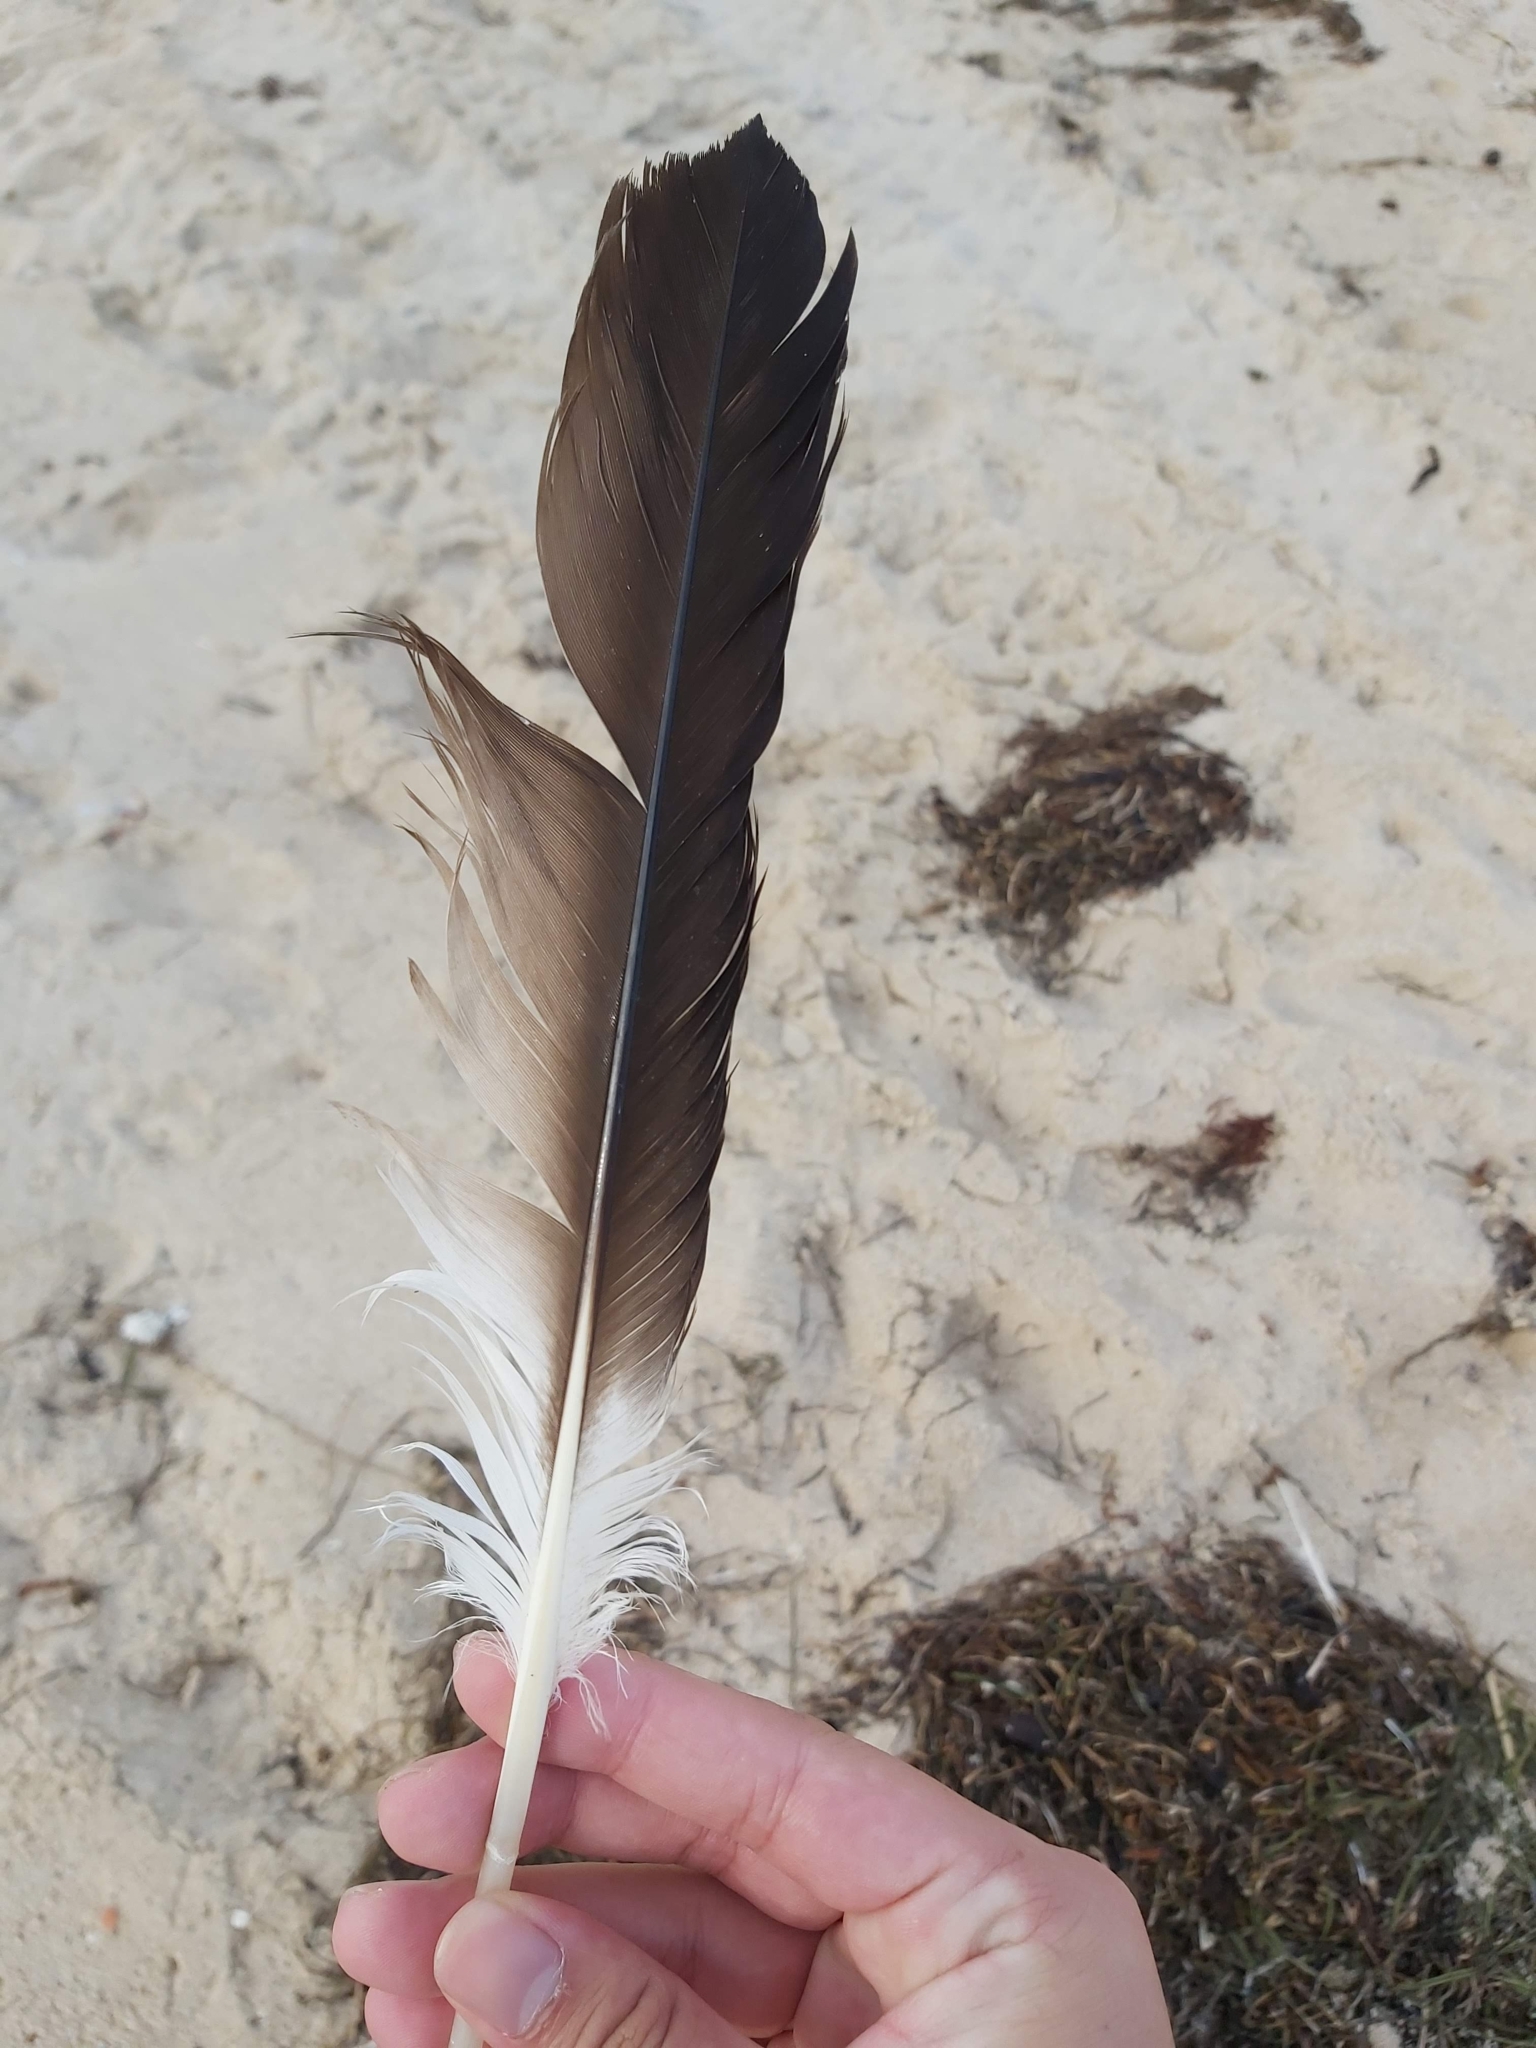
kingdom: Animalia
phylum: Chordata
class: Aves
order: Suliformes
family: Sulidae
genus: Morus
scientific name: Morus serrator
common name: Australasian gannet
